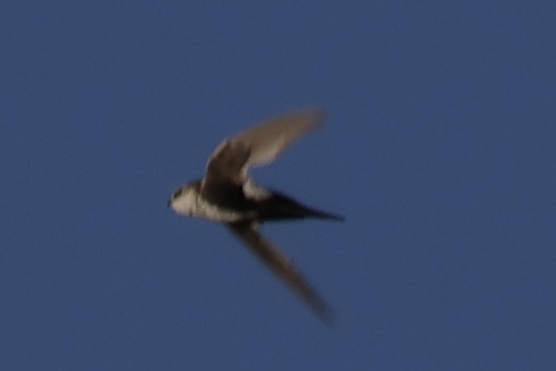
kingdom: Animalia
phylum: Chordata
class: Aves
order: Apodiformes
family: Apodidae
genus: Aeronautes
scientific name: Aeronautes saxatalis
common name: White-throated swift
